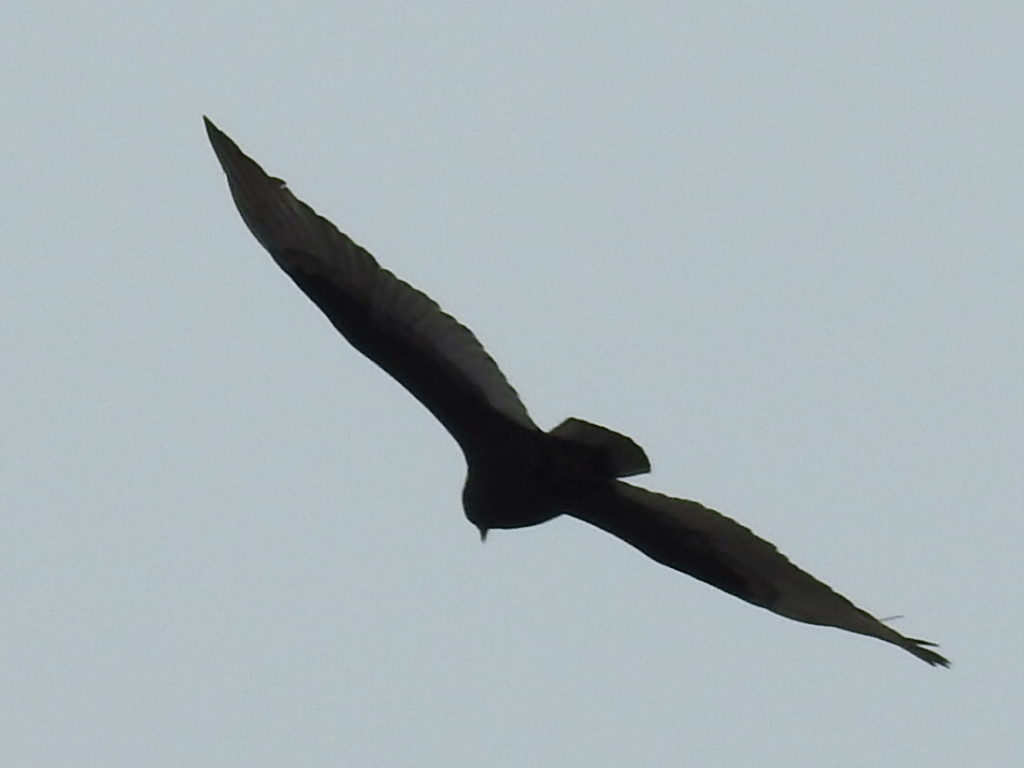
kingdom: Animalia
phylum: Chordata
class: Aves
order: Accipitriformes
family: Cathartidae
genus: Cathartes
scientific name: Cathartes aura
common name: Turkey vulture
